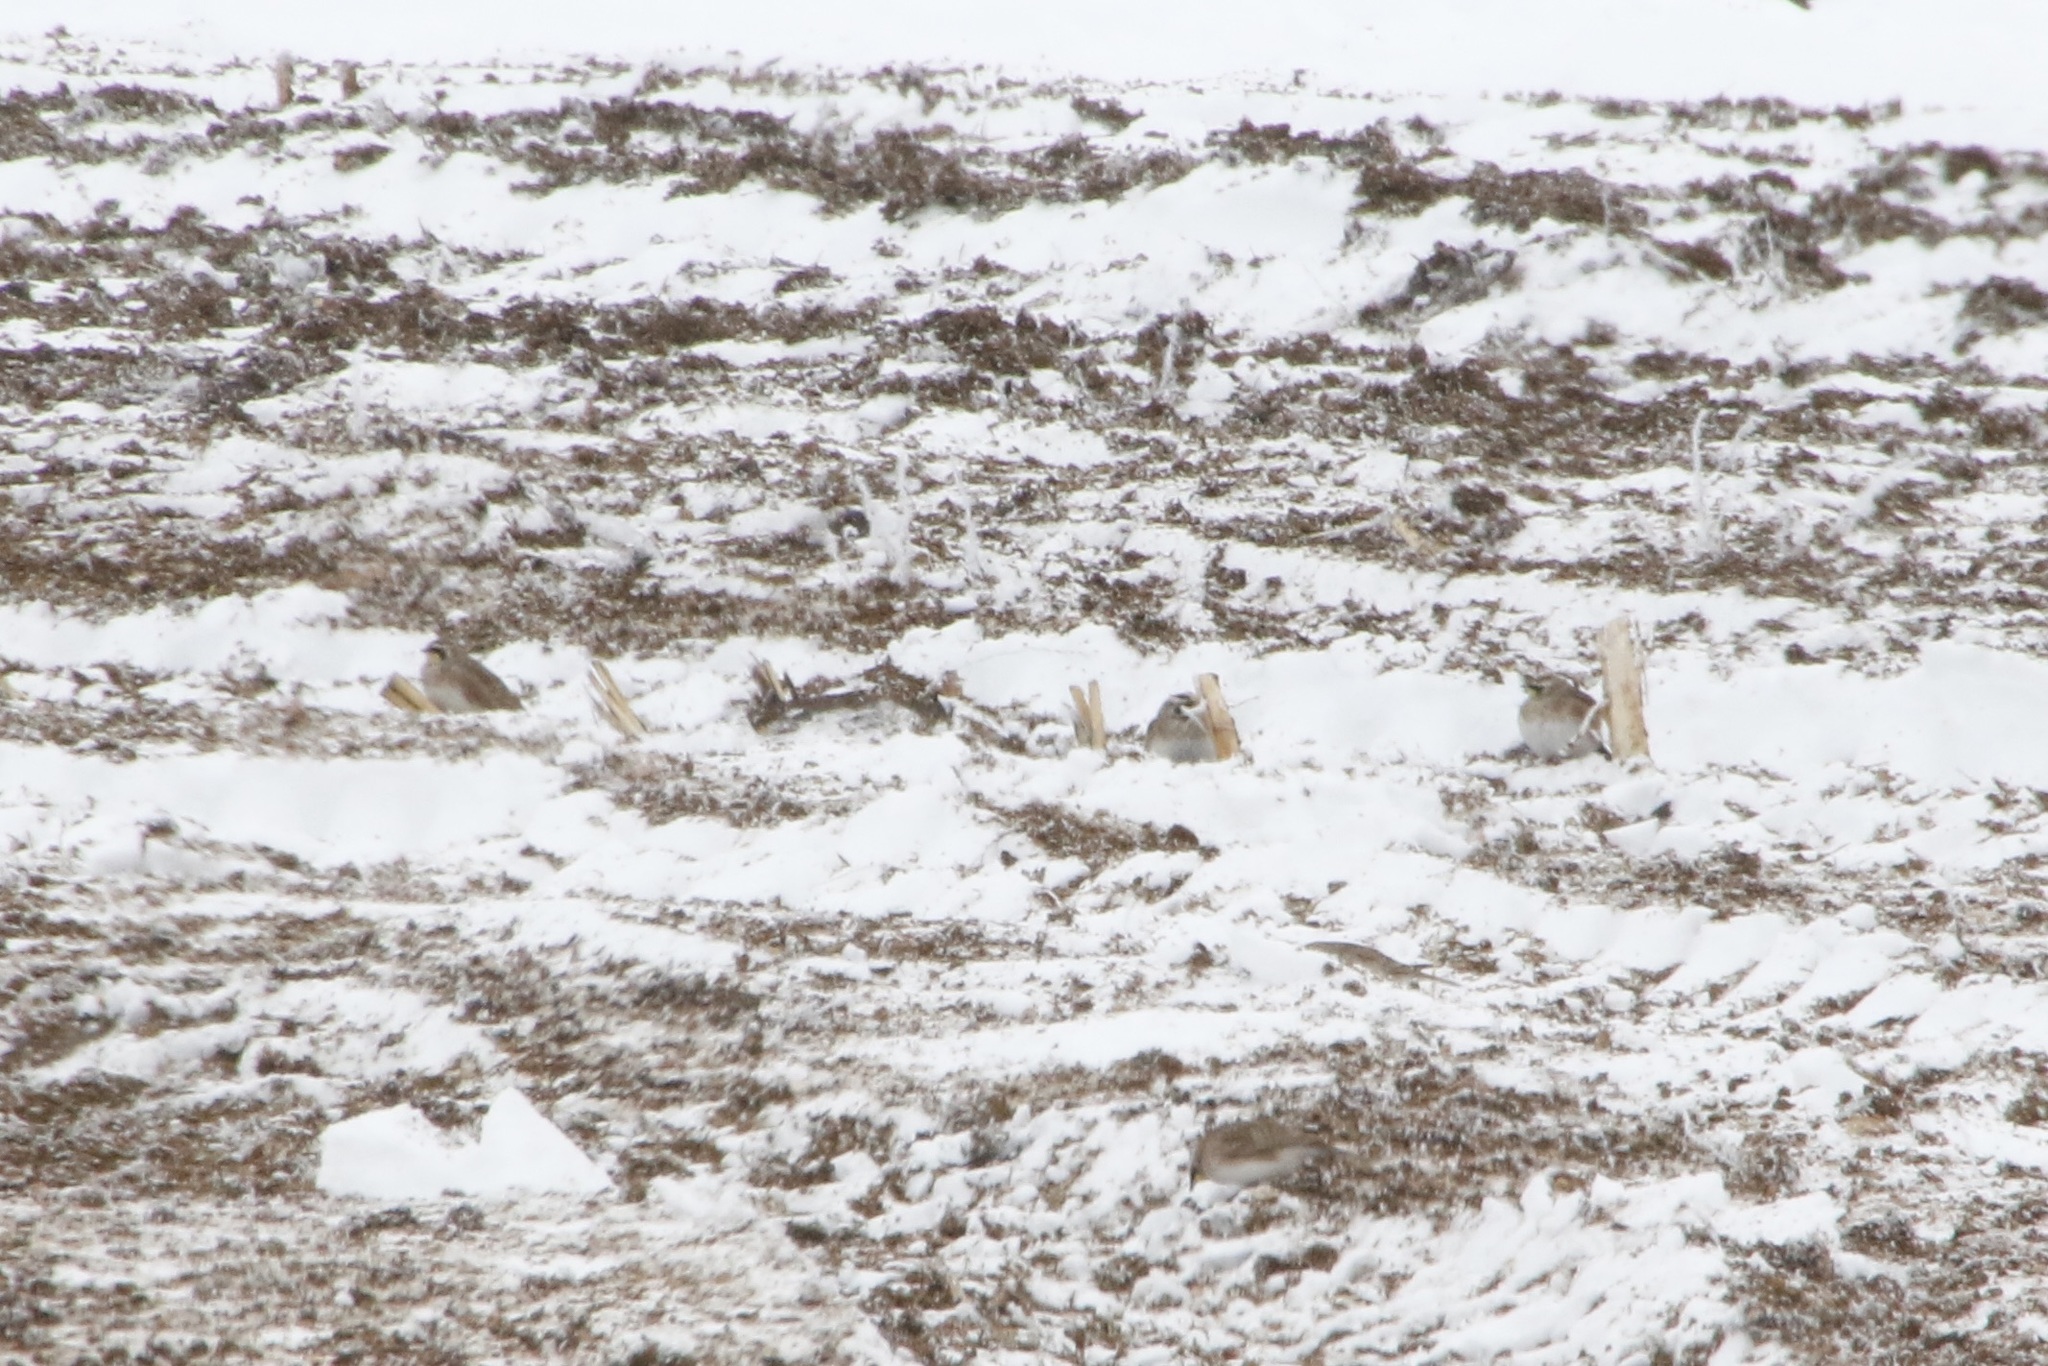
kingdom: Animalia
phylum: Chordata
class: Aves
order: Passeriformes
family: Alaudidae
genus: Eremophila
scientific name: Eremophila alpestris
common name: Horned lark
